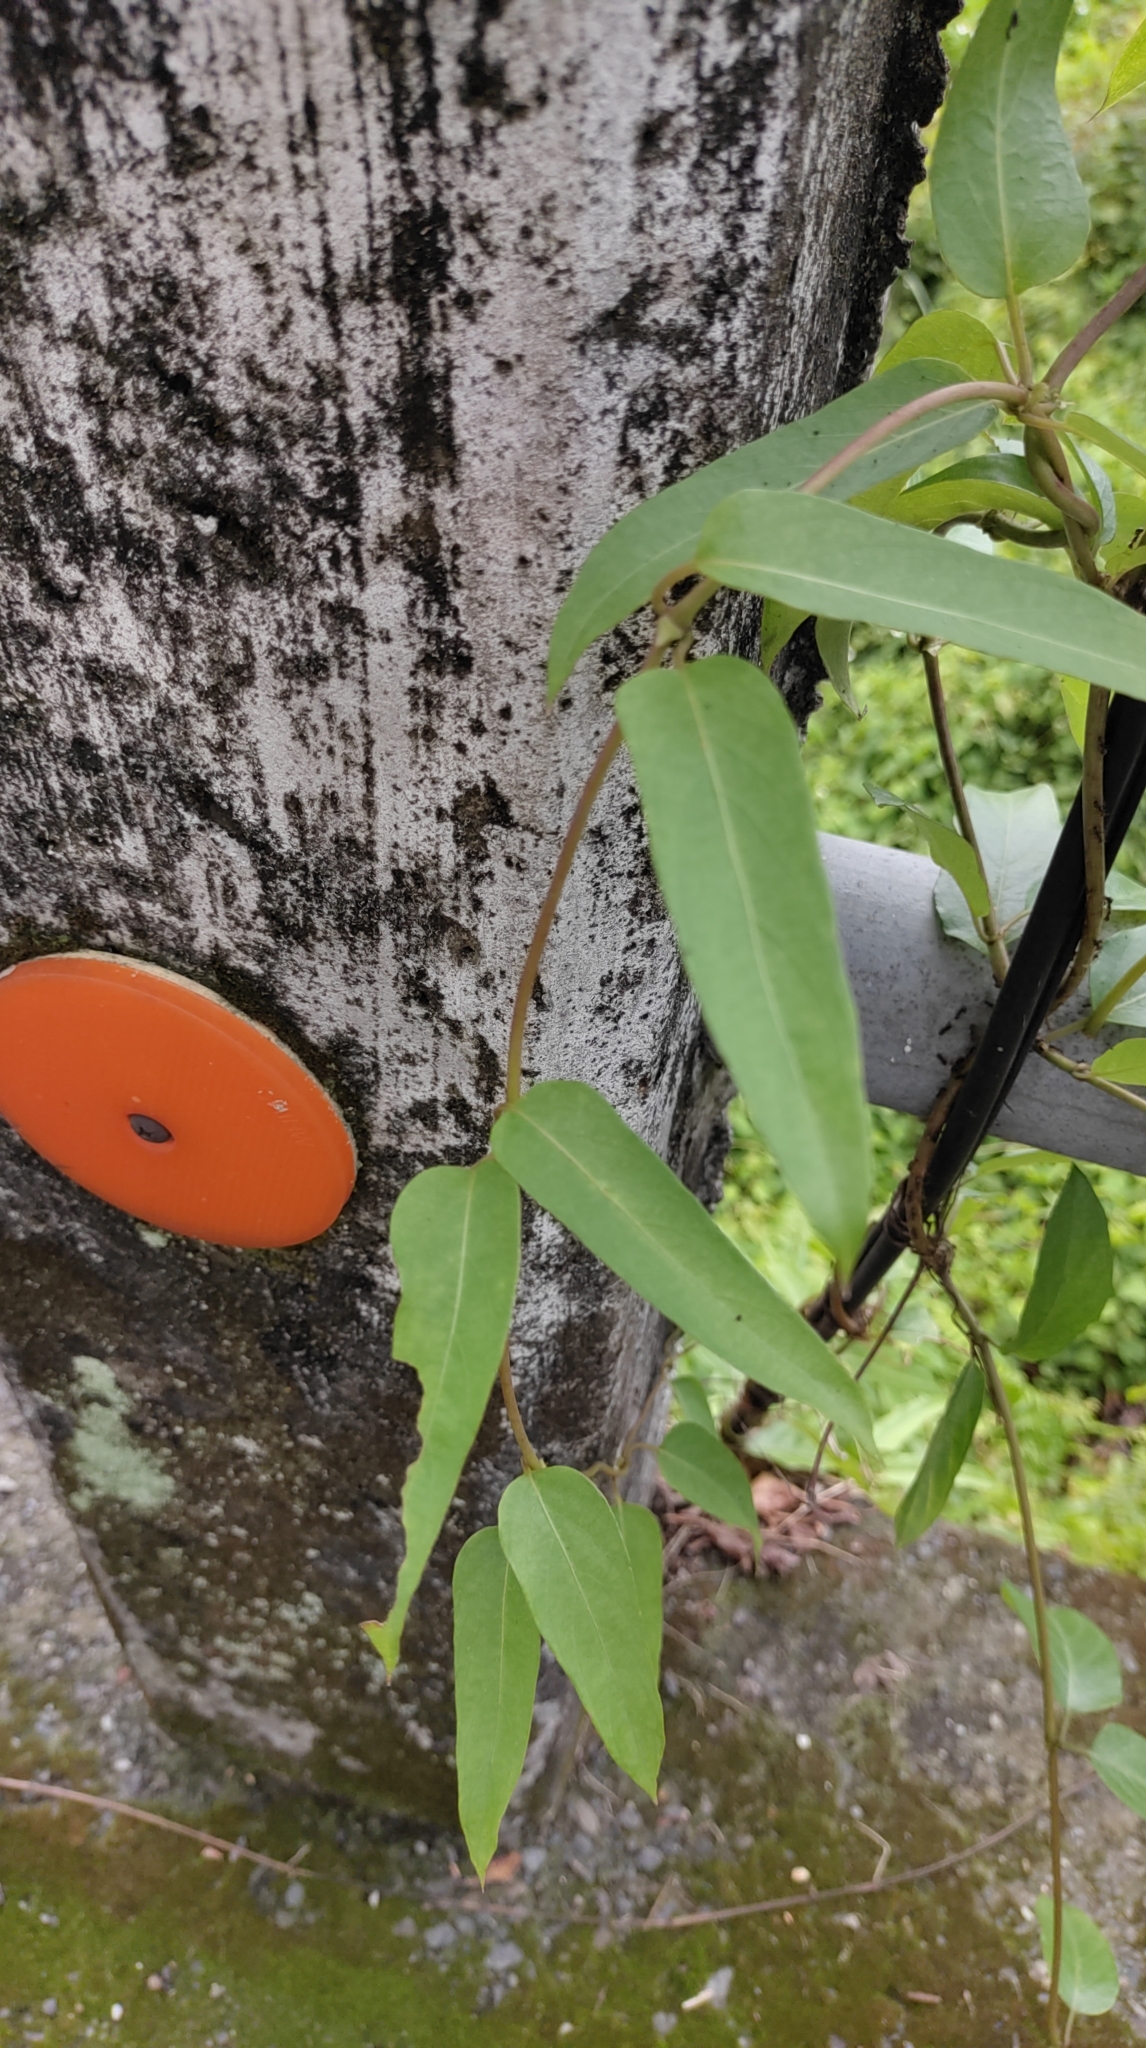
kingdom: Plantae
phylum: Tracheophyta
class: Magnoliopsida
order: Gentianales
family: Rubiaceae
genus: Paederia
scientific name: Paederia foetida
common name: Stinkvine
